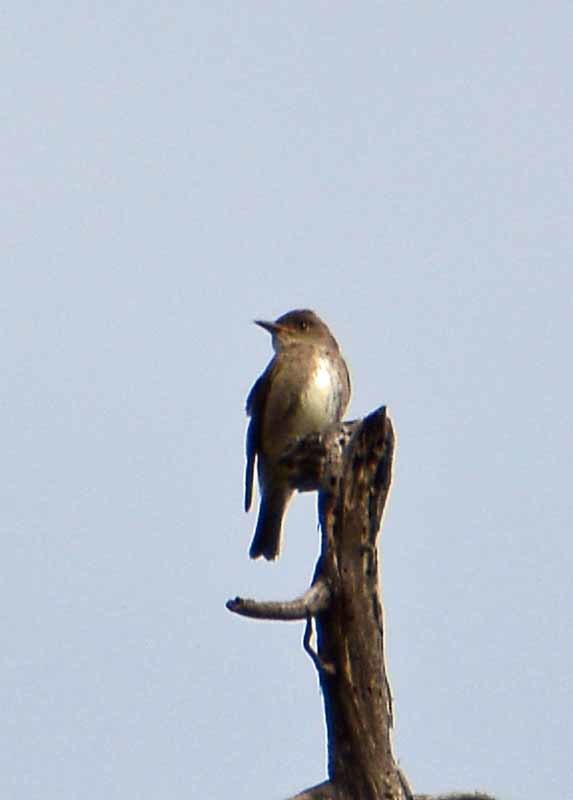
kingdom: Animalia
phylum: Chordata
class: Aves
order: Passeriformes
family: Tyrannidae
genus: Contopus
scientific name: Contopus cooperi
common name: Olive-sided flycatcher
